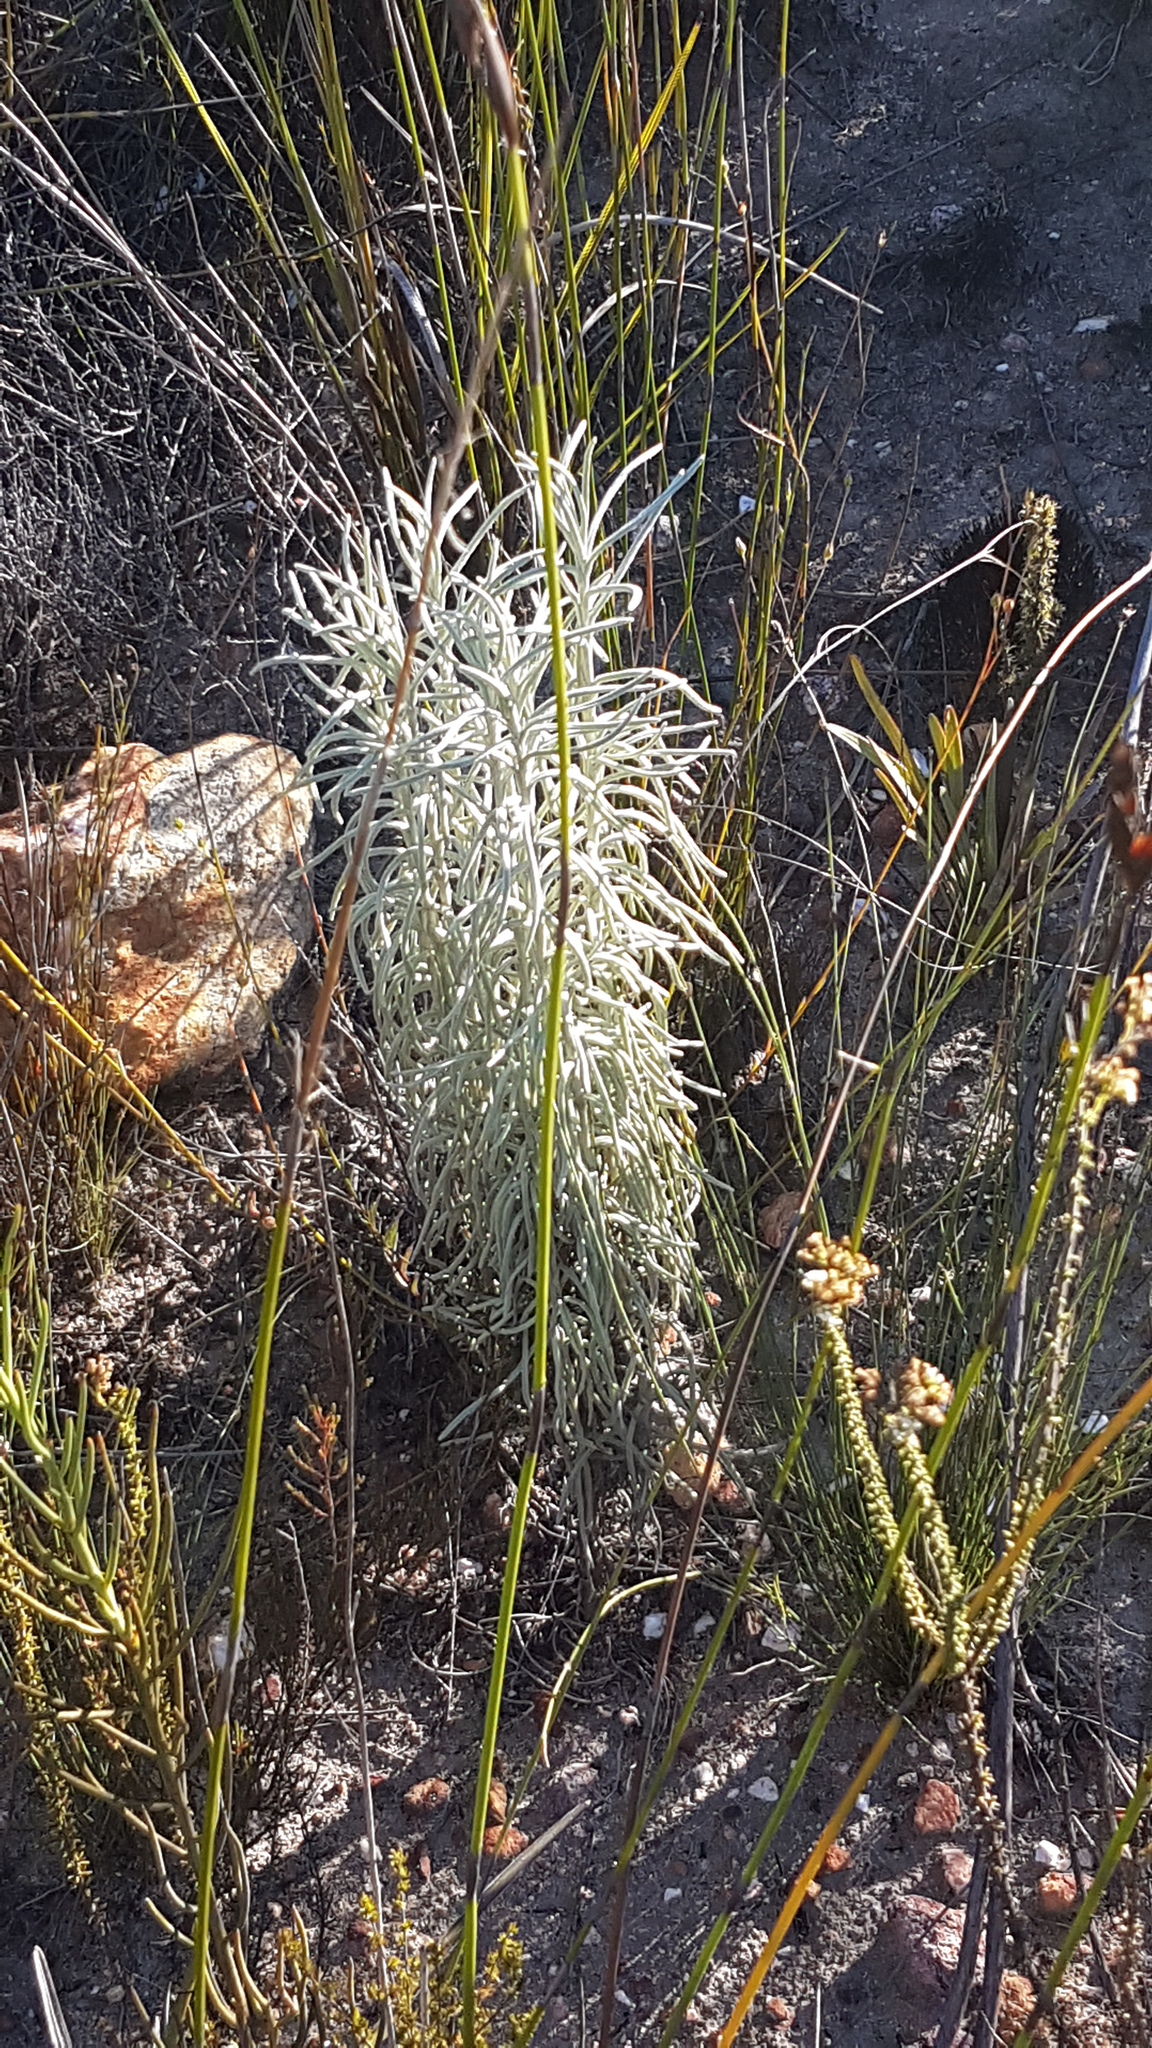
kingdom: Plantae
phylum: Tracheophyta
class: Magnoliopsida
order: Asterales
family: Asteraceae
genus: Syncarpha
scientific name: Syncarpha gnaphaloides
